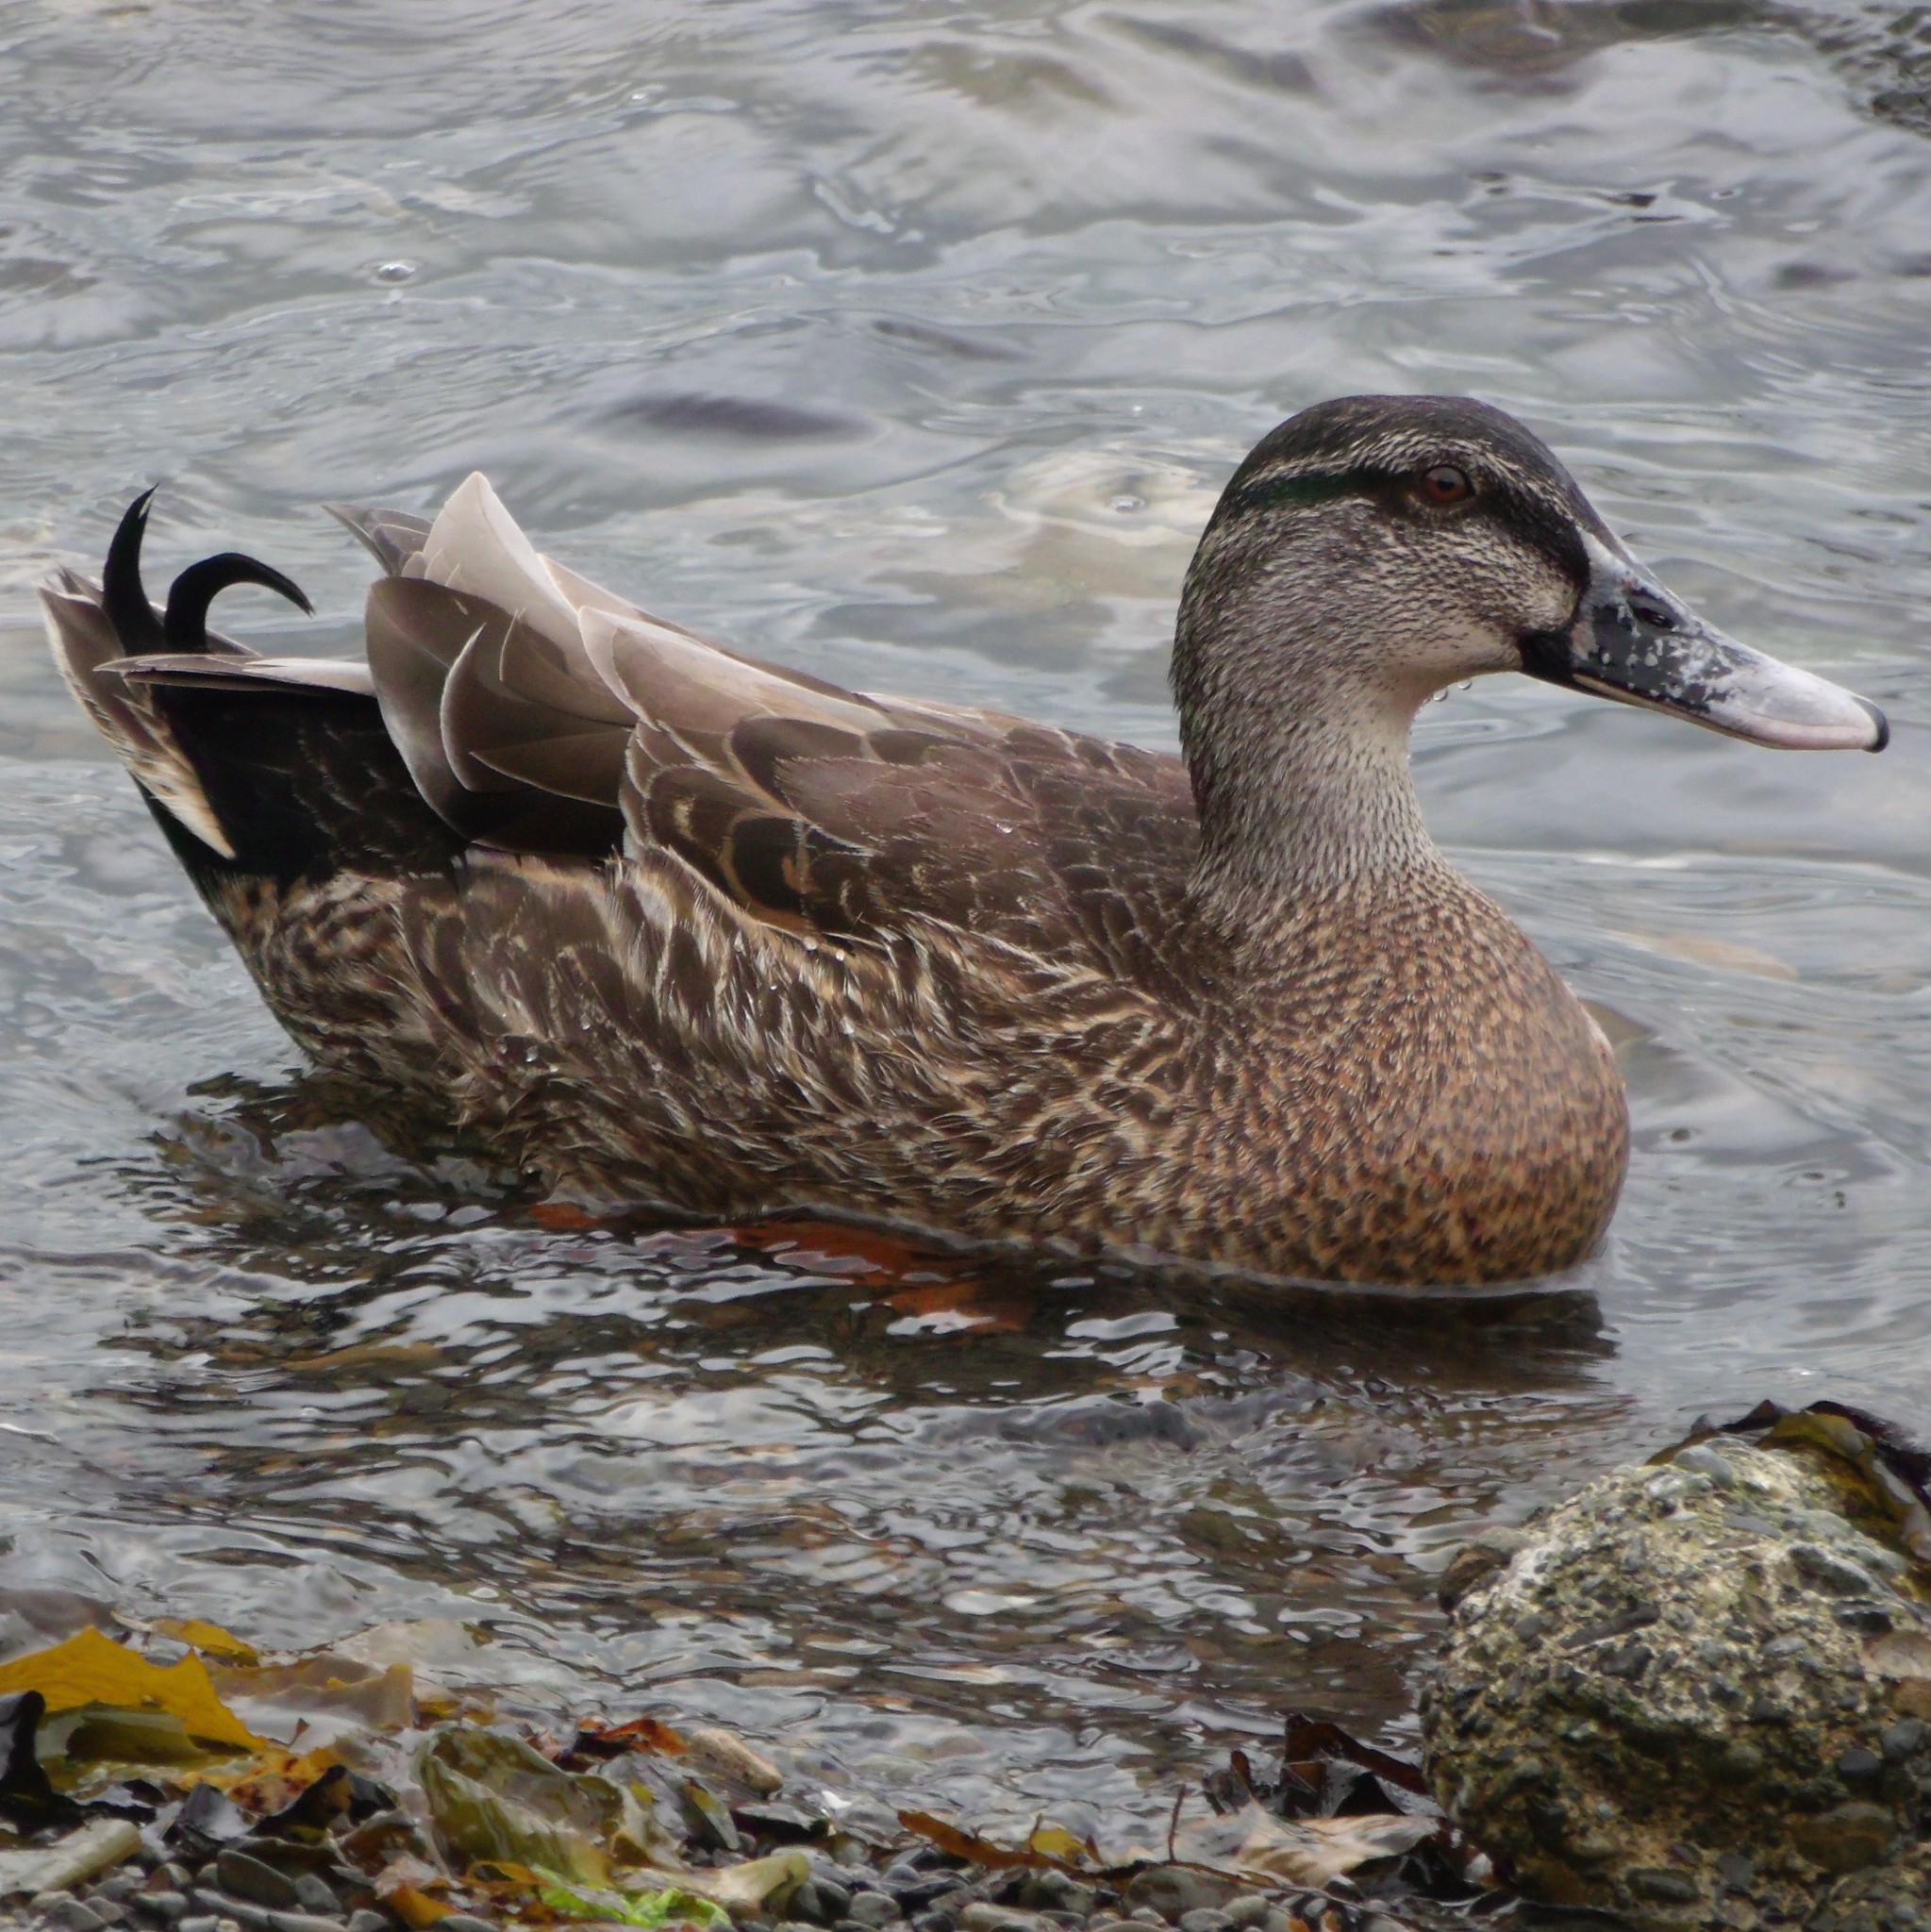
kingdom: Animalia
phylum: Chordata
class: Aves
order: Anseriformes
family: Anatidae
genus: Anas
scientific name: Anas
